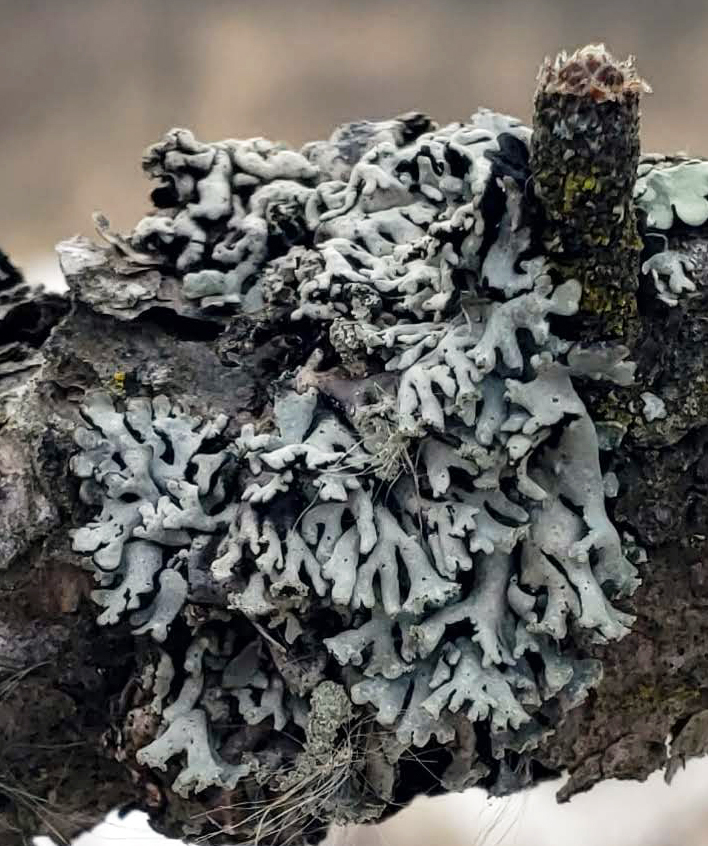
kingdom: Fungi
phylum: Ascomycota
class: Lecanoromycetes
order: Lecanorales
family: Parmeliaceae
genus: Hypogymnia
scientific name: Hypogymnia physodes
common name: Dark crottle
